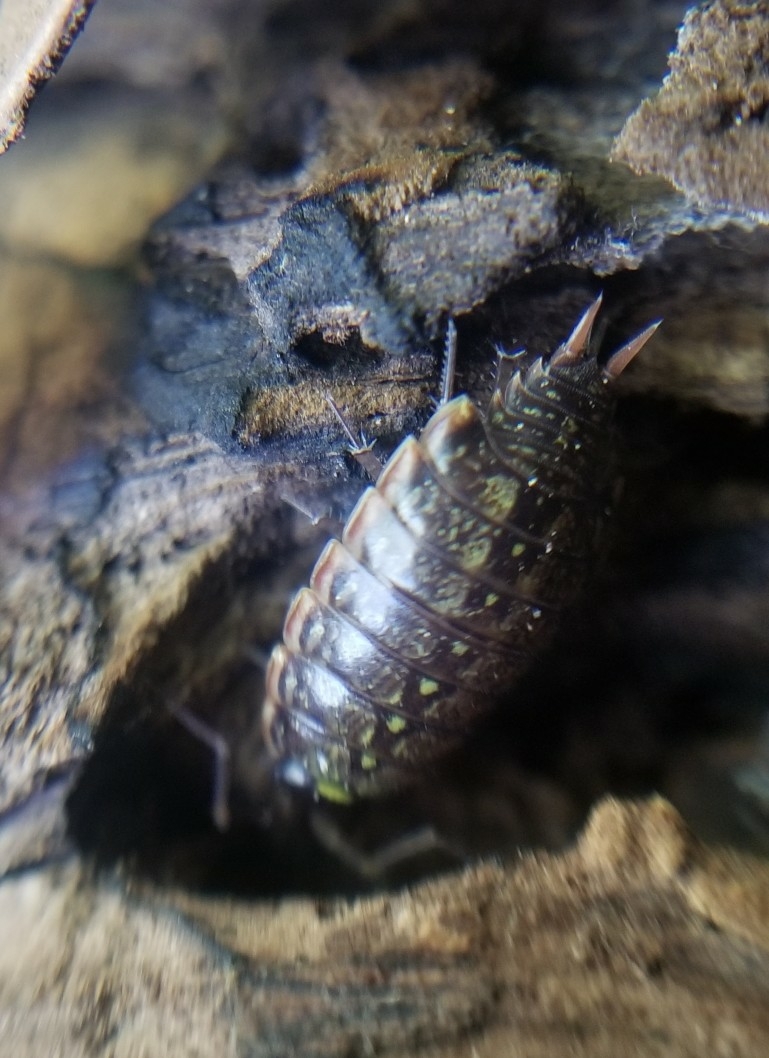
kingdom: Animalia
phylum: Arthropoda
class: Malacostraca
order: Isopoda
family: Philosciidae
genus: Philoscia
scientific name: Philoscia muscorum
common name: Common striped woodlouse
